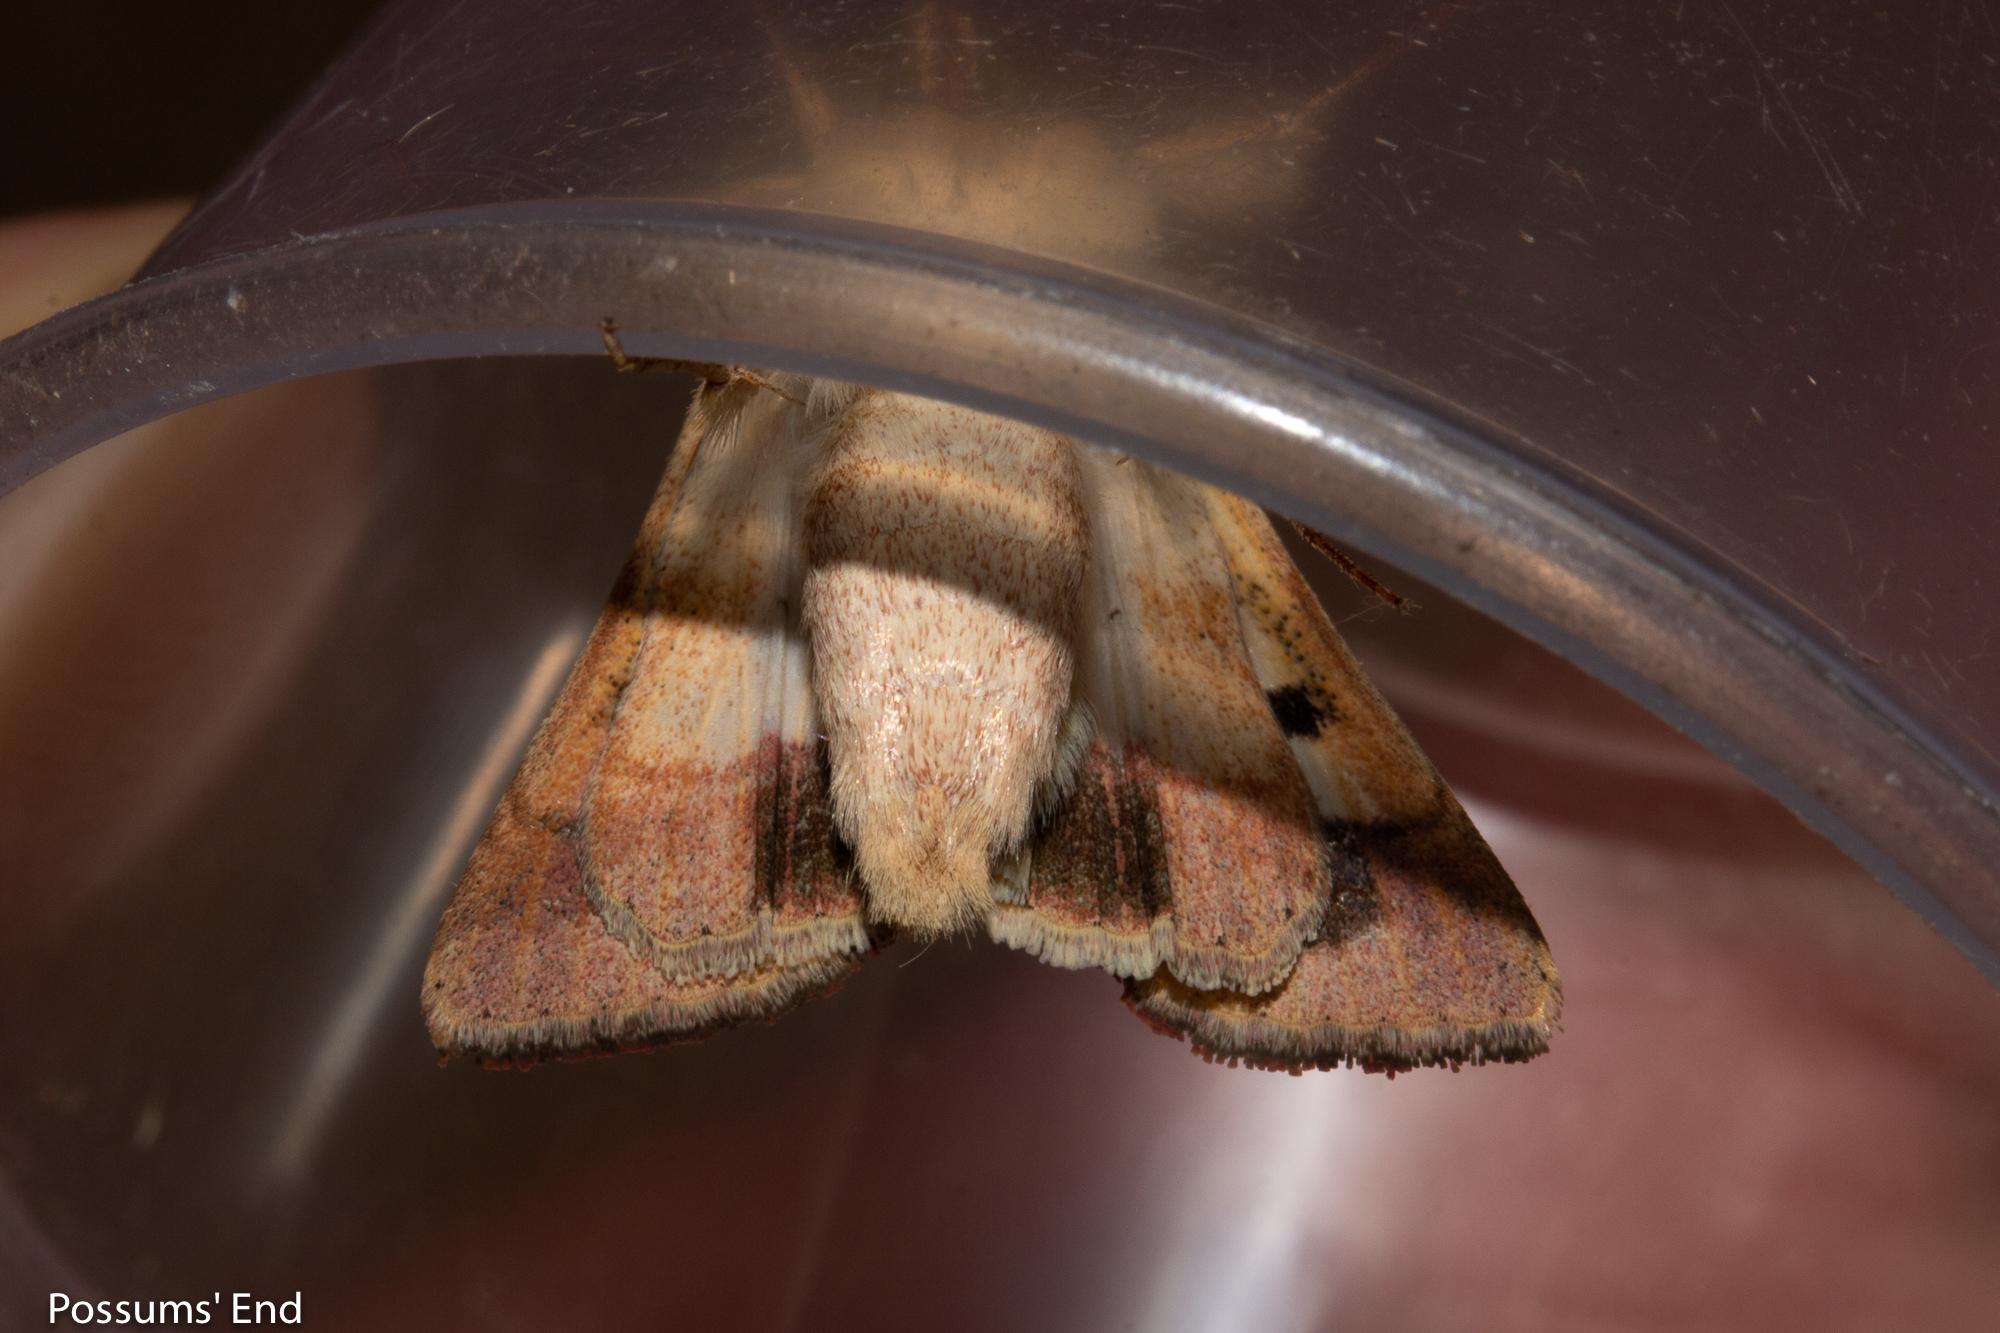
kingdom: Animalia
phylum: Arthropoda
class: Insecta
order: Lepidoptera
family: Noctuidae
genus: Helicoverpa
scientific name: Helicoverpa armigera
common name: Cotton bollworm
